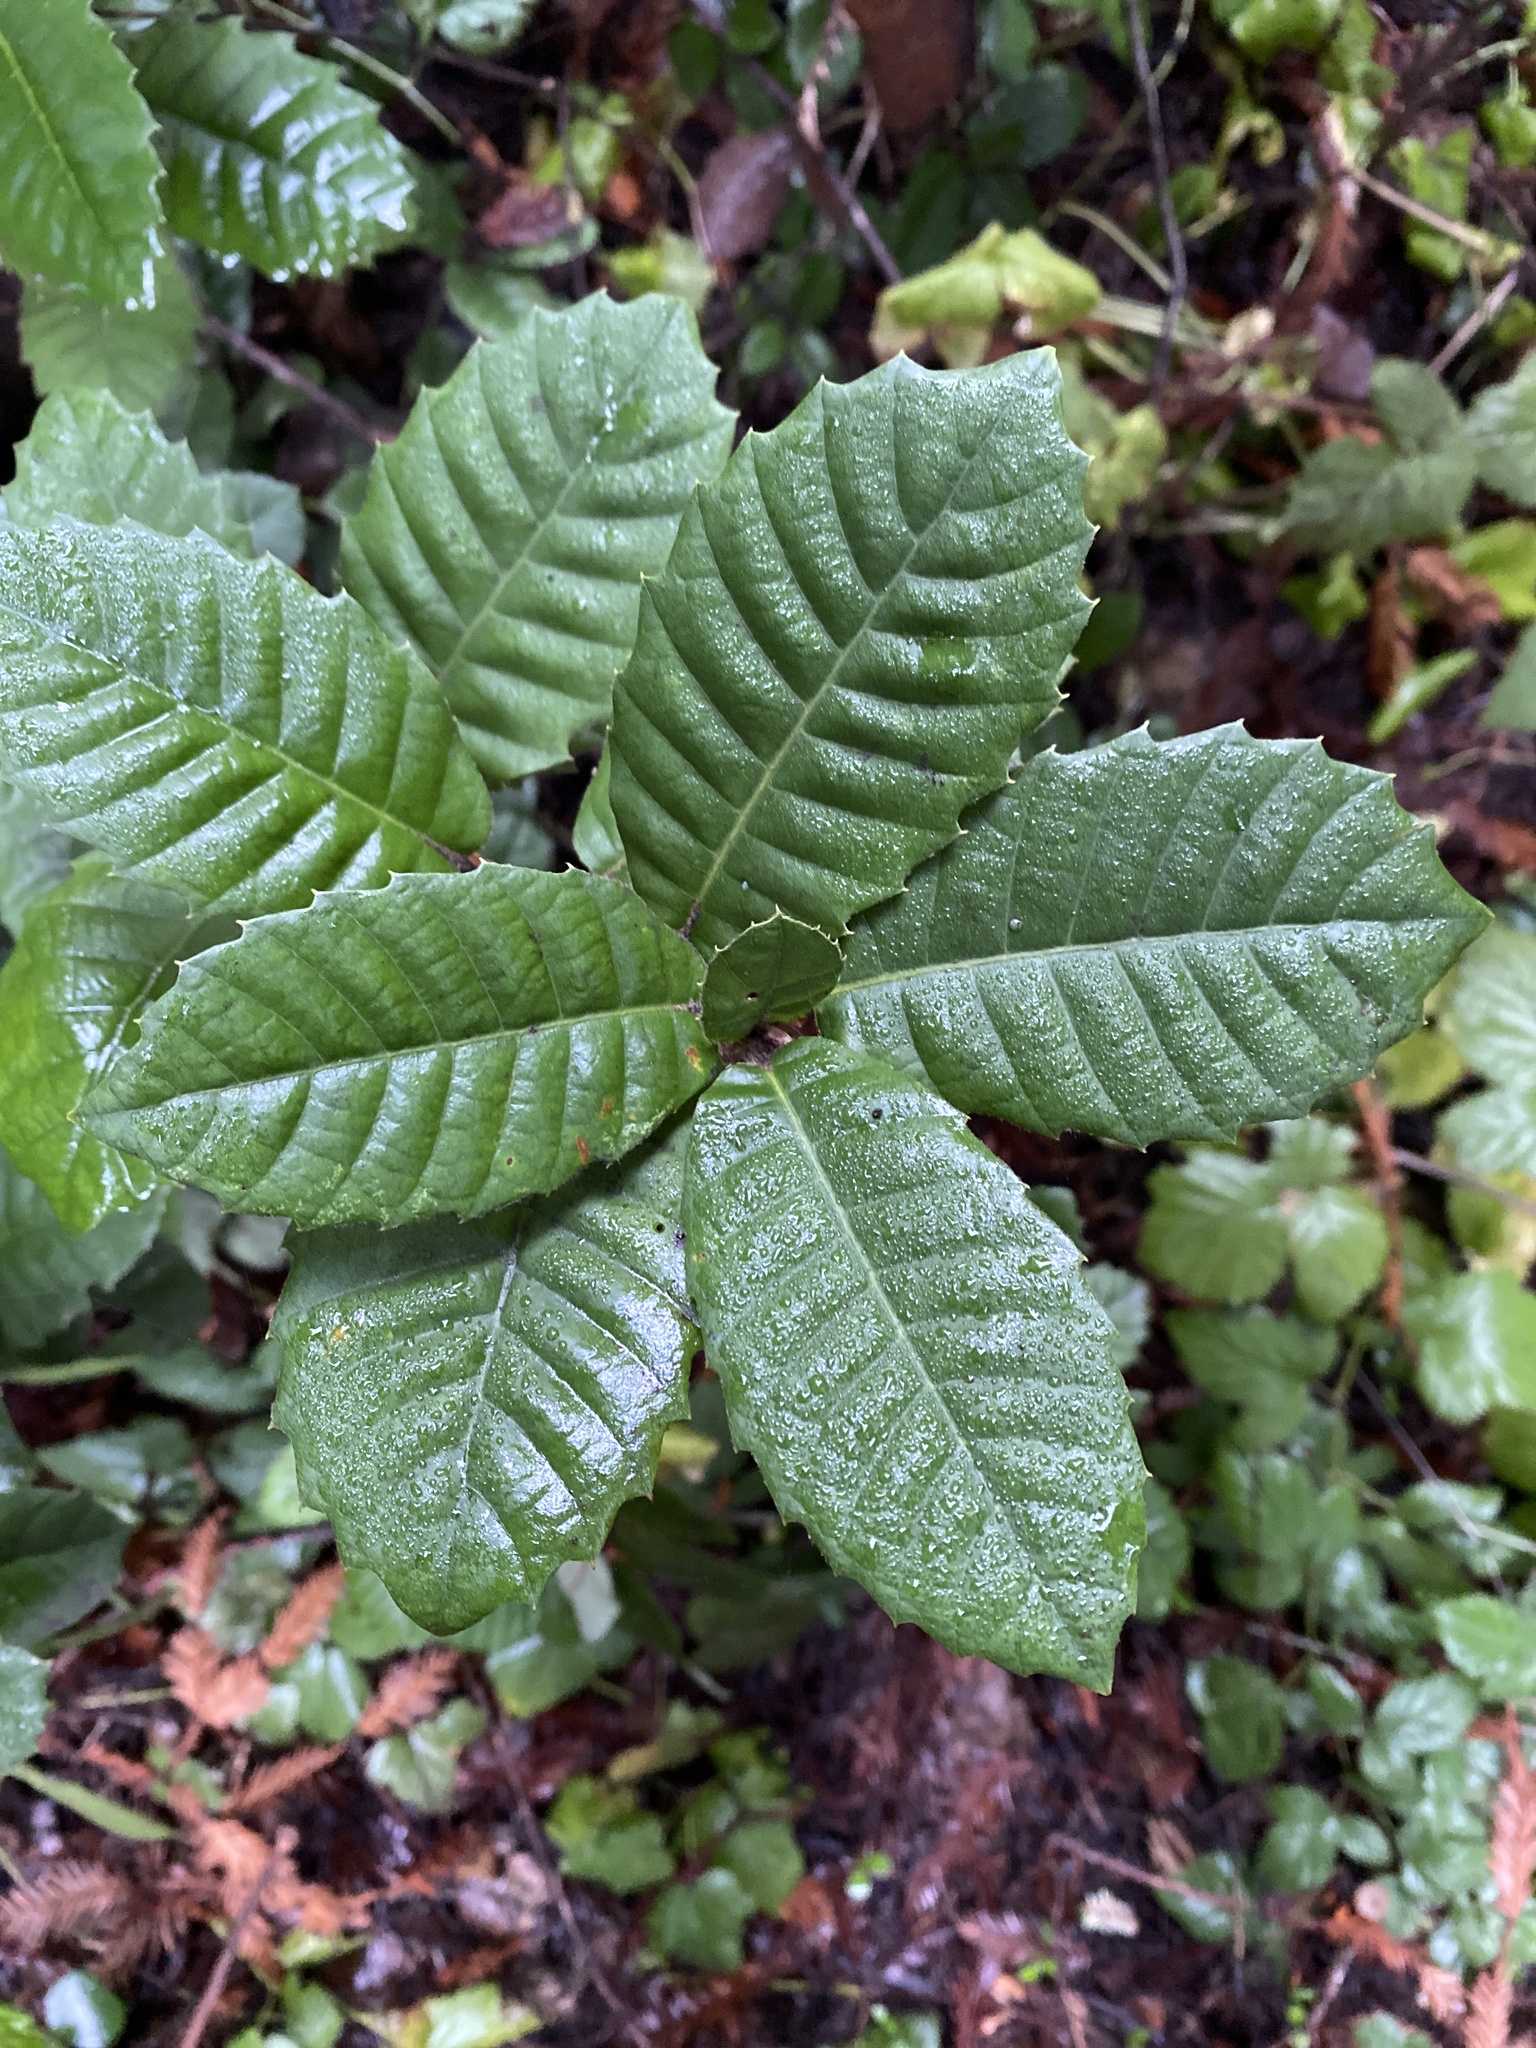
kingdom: Plantae
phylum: Tracheophyta
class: Magnoliopsida
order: Fagales
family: Fagaceae
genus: Notholithocarpus
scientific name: Notholithocarpus densiflorus
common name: Tan bark oak
